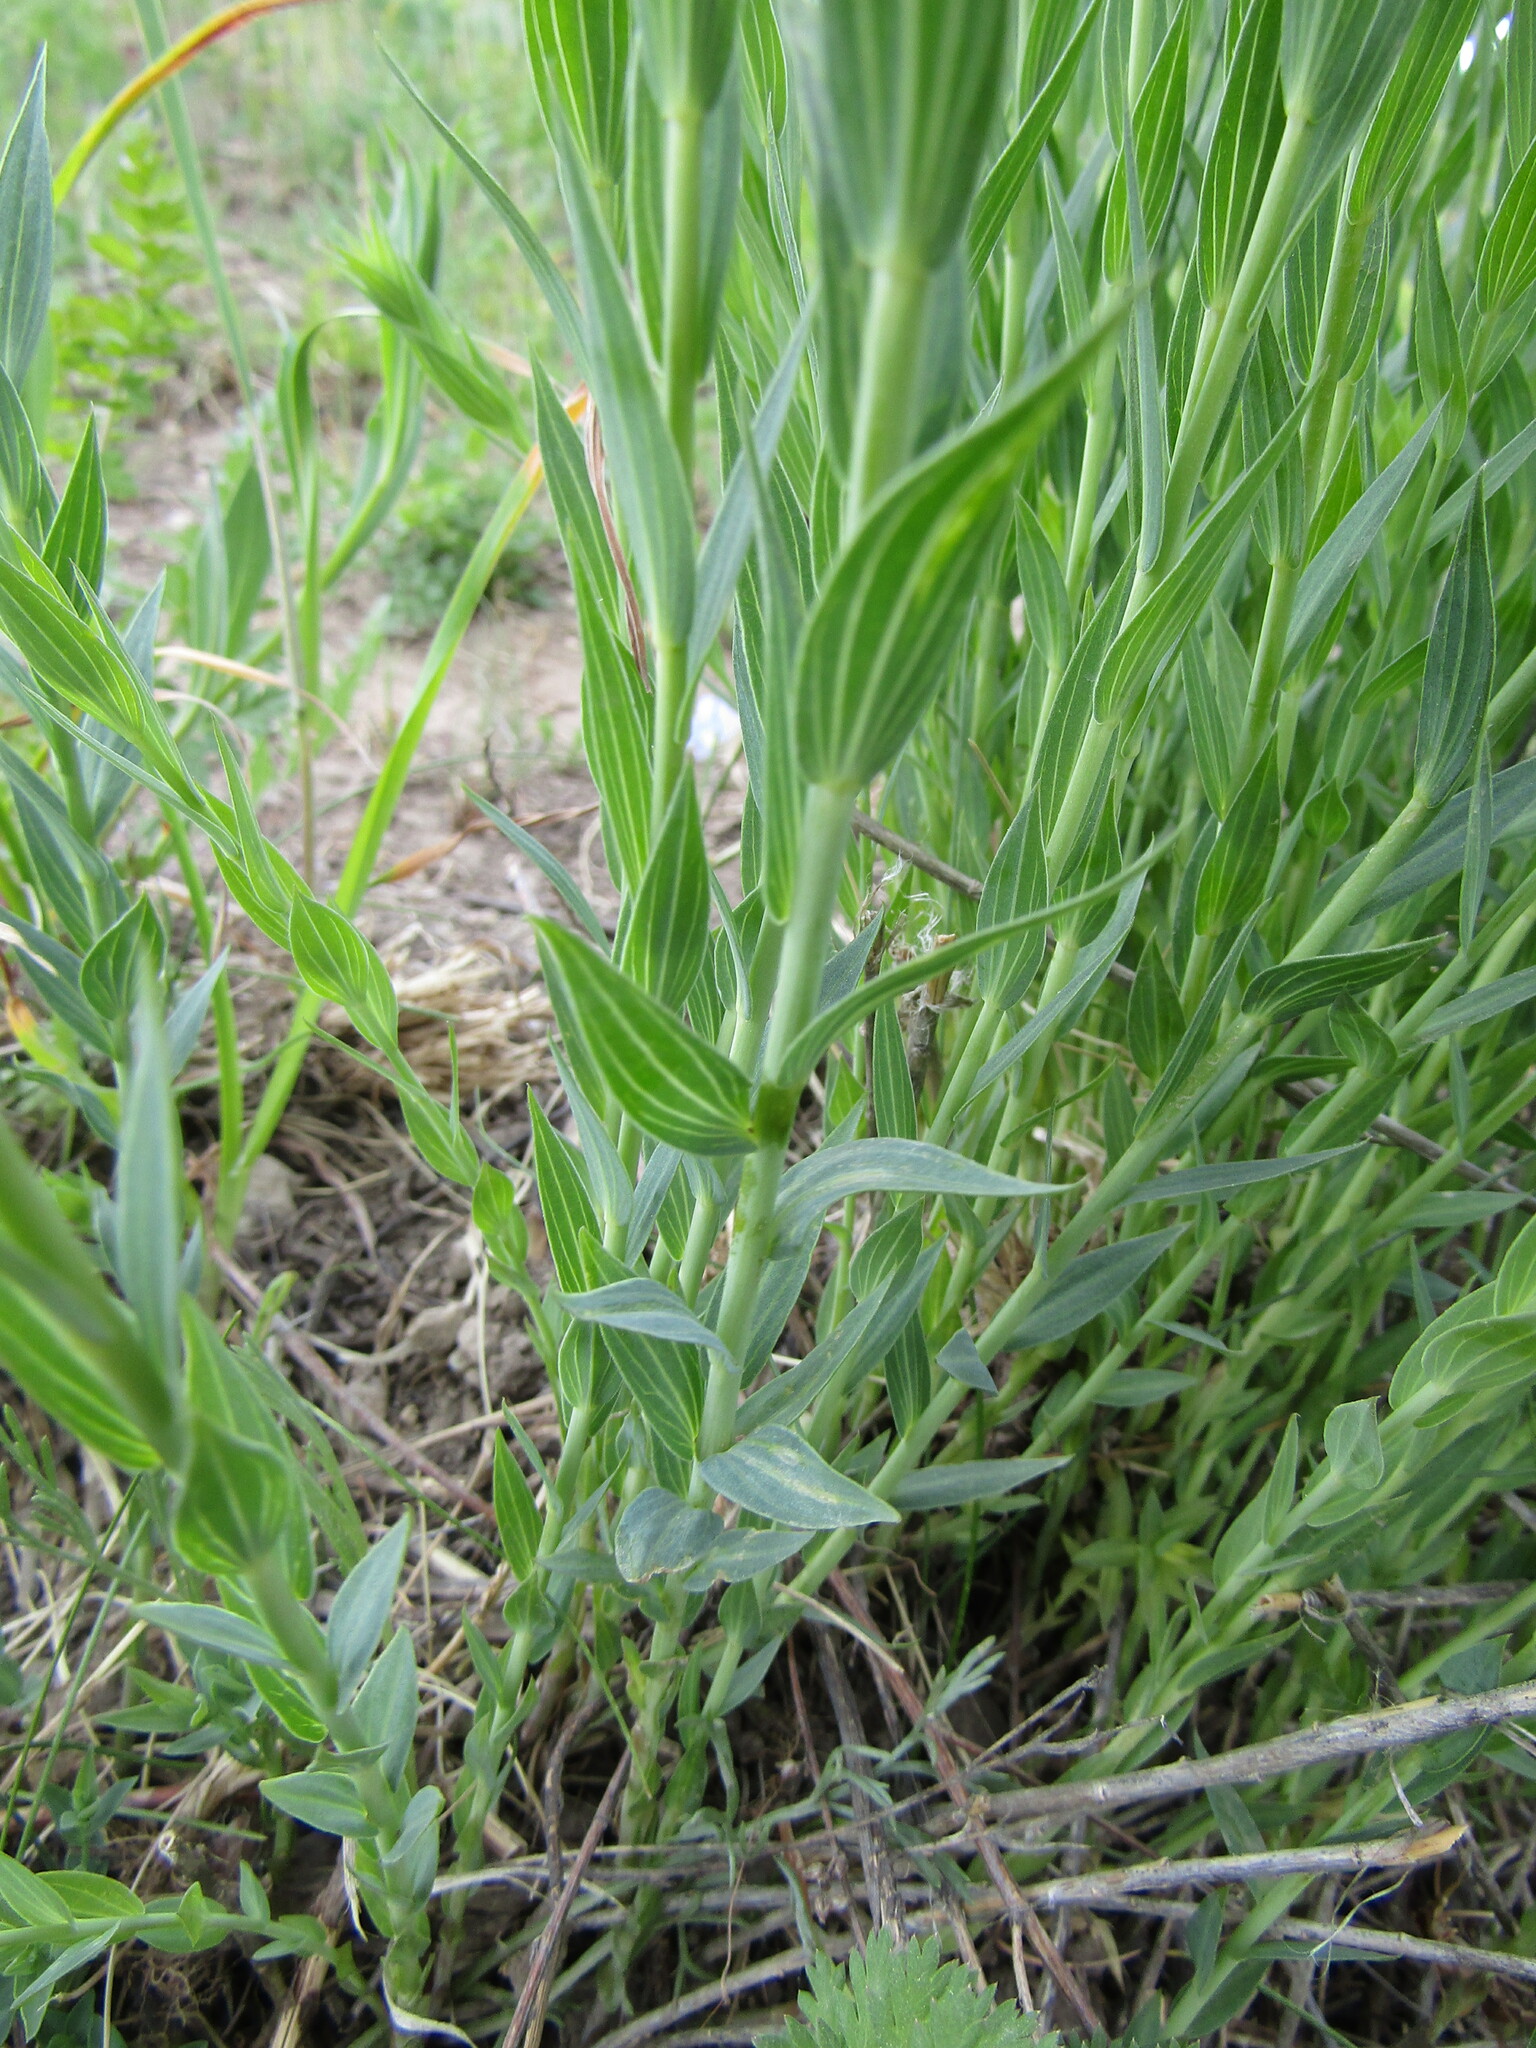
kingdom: Plantae
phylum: Tracheophyta
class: Magnoliopsida
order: Malpighiales
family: Linaceae
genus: Linum
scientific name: Linum nervosum
